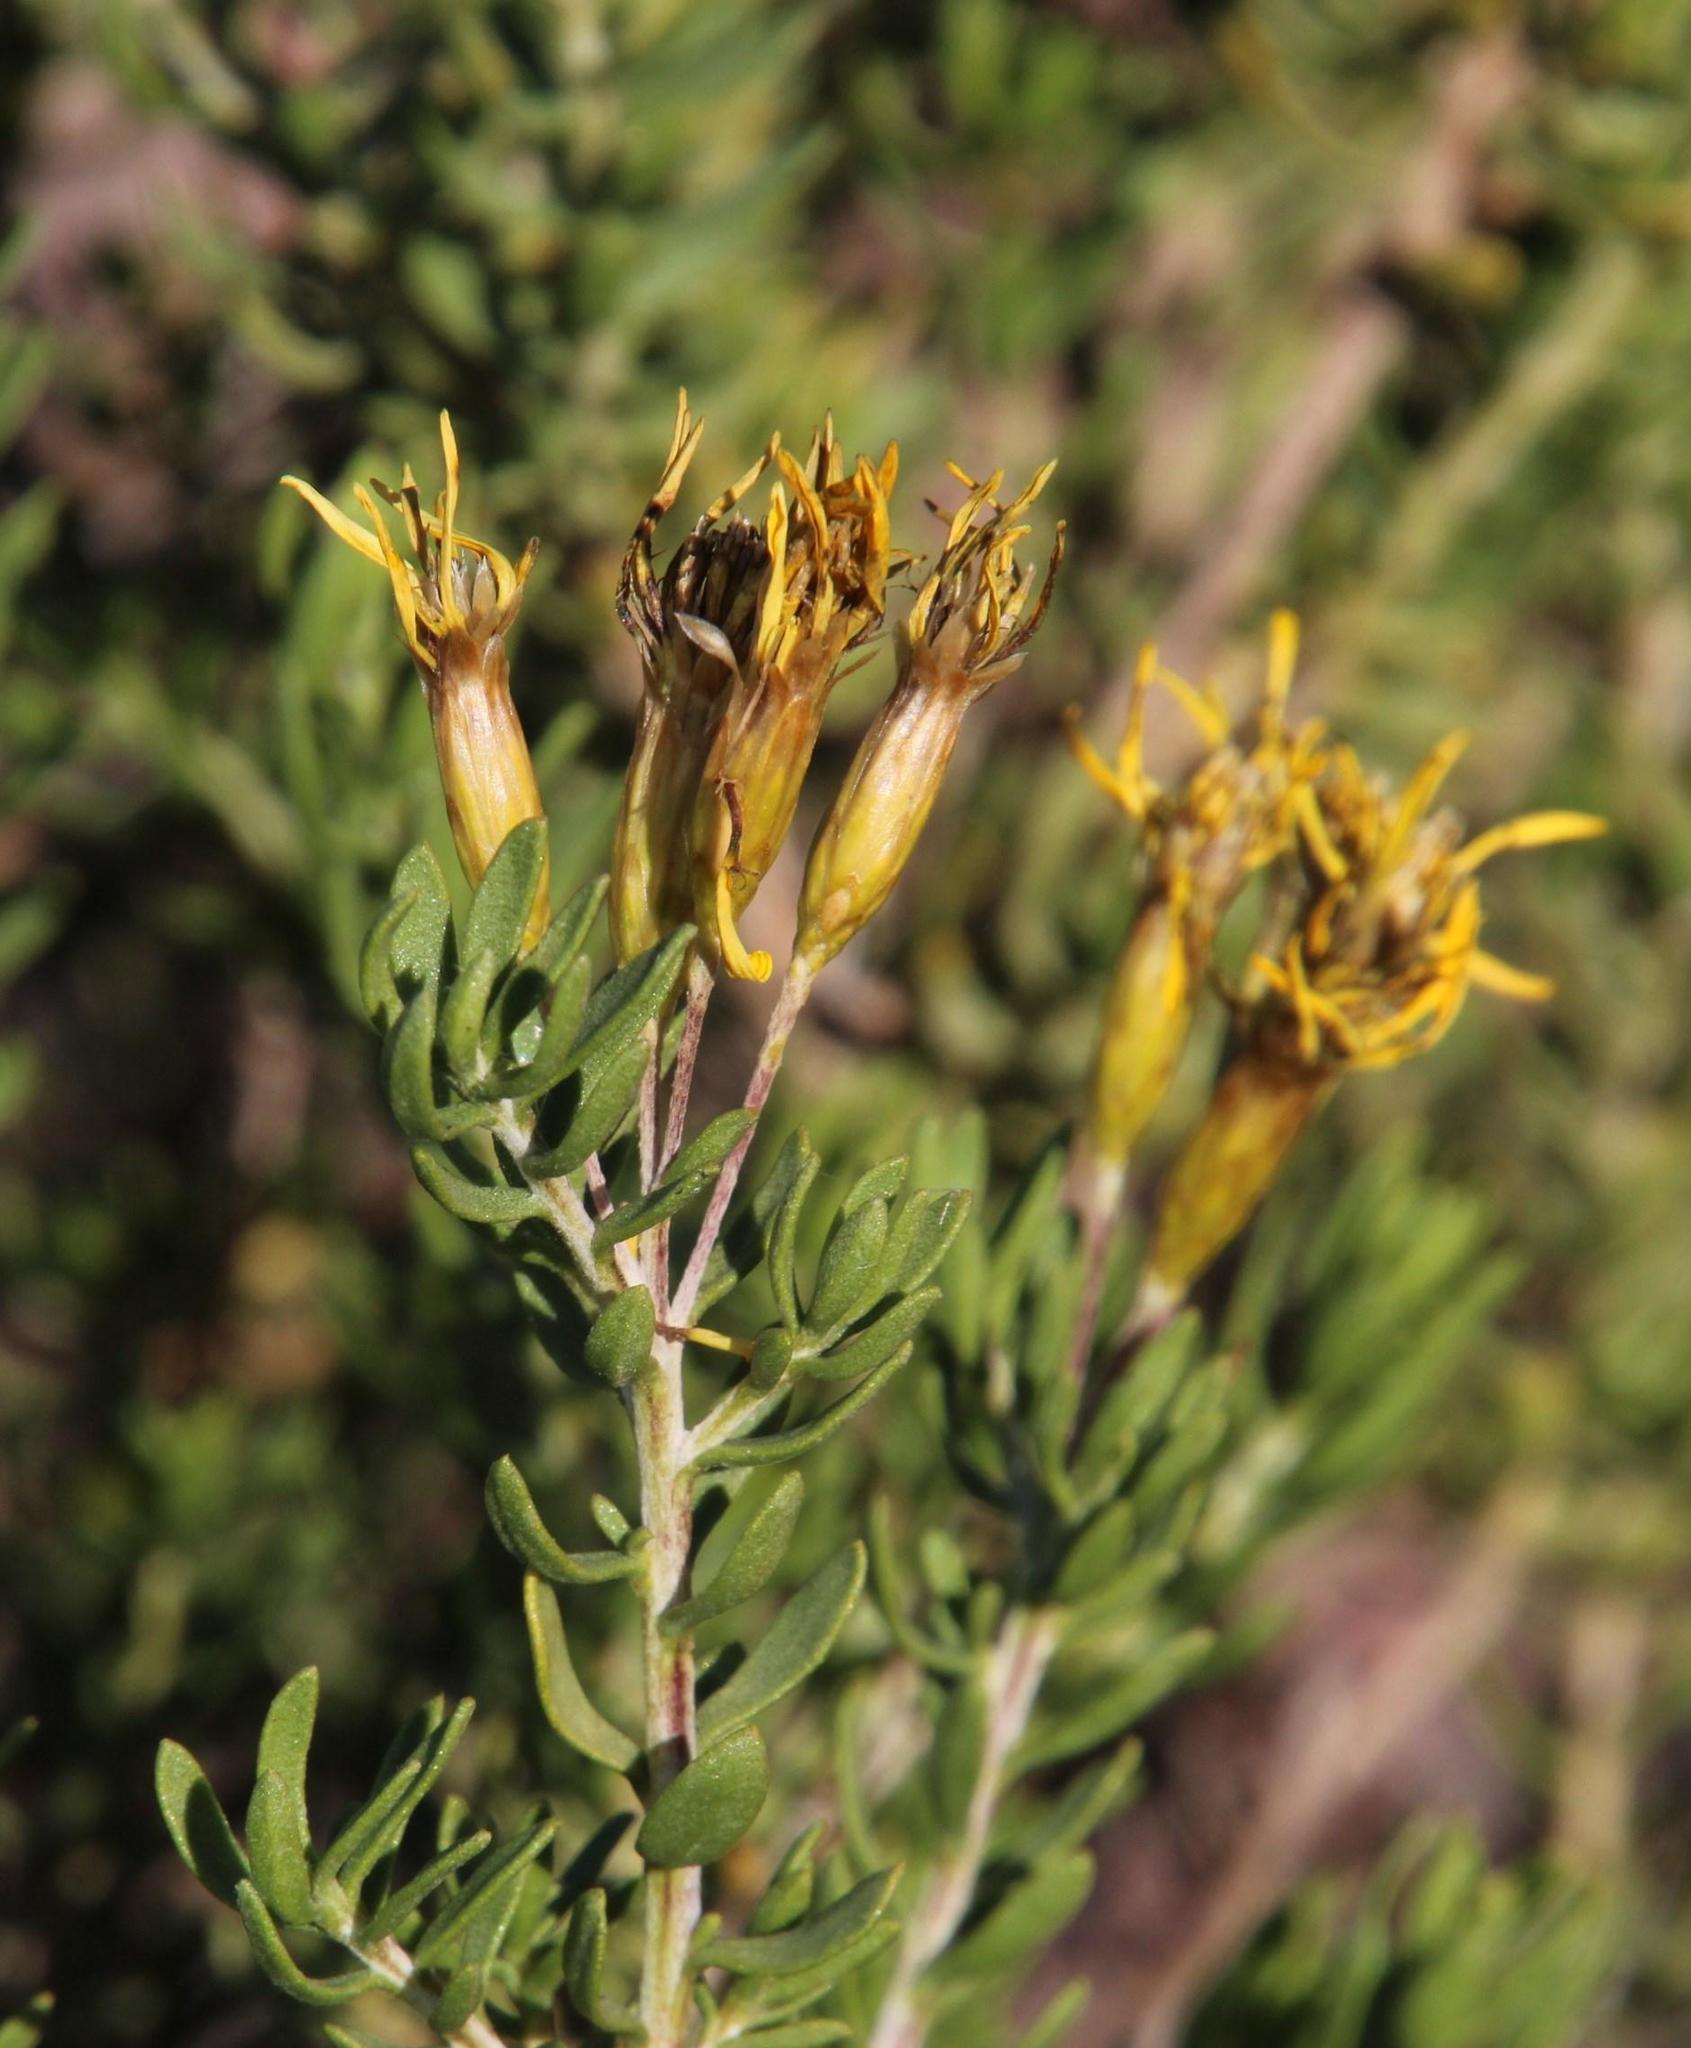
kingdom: Plantae
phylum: Tracheophyta
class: Magnoliopsida
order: Asterales
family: Asteraceae
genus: Oedera
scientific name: Oedera multipunctata
